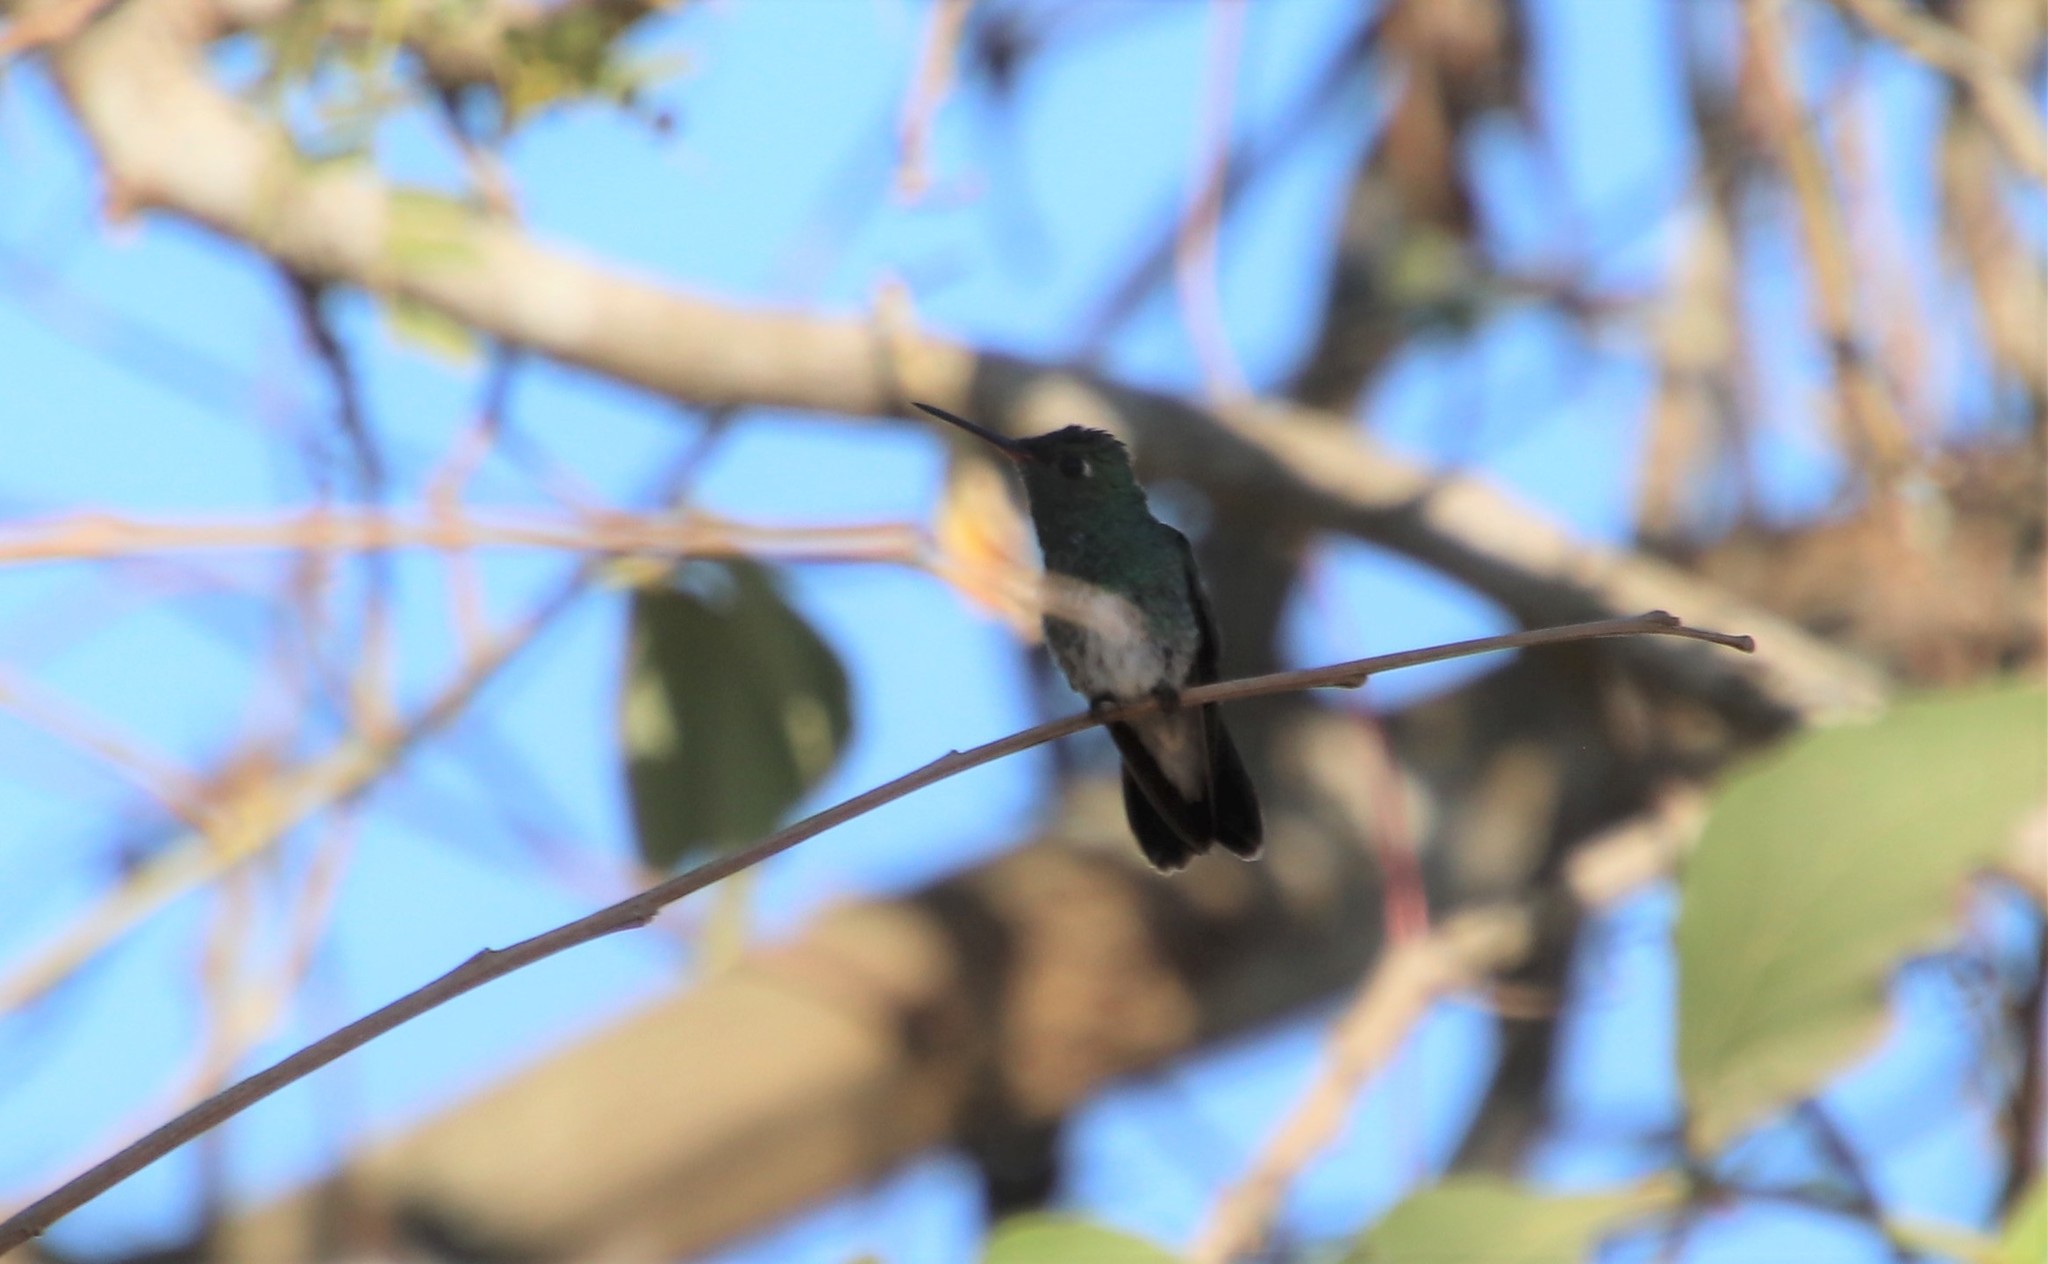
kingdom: Animalia
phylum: Chordata
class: Aves
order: Apodiformes
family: Trochilidae
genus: Chionomesa
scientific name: Chionomesa fimbriata
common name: Glittering-throated emerald
